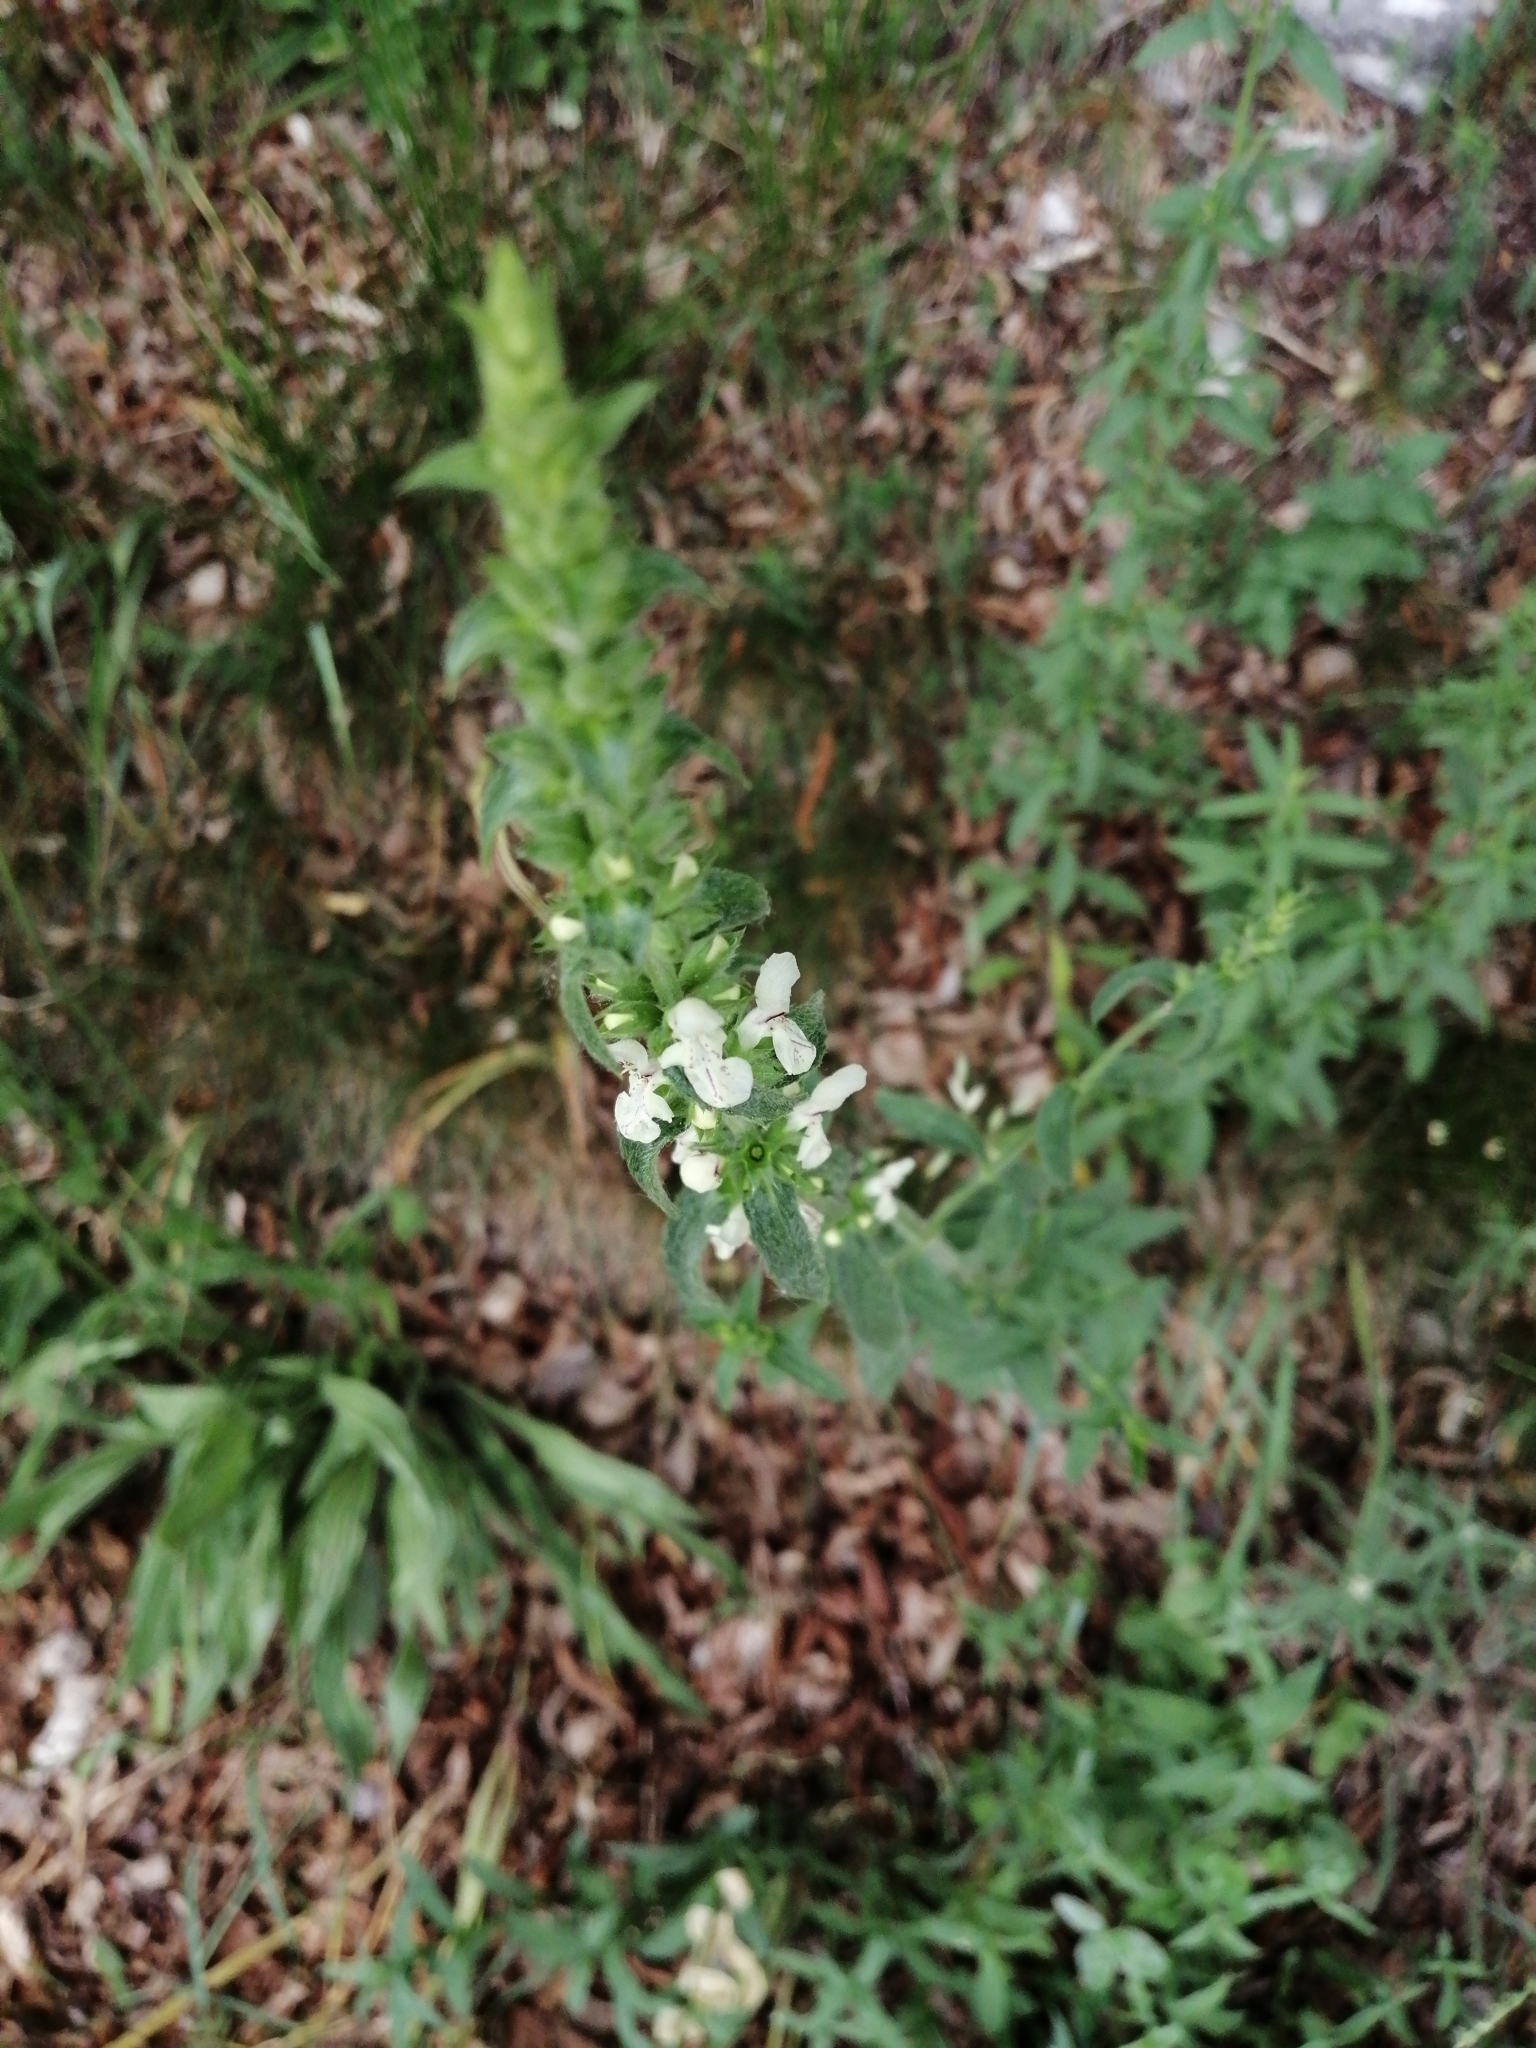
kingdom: Plantae
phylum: Tracheophyta
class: Magnoliopsida
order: Lamiales
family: Lamiaceae
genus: Stachys
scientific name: Stachys recta
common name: Perennial yellow-woundwort
